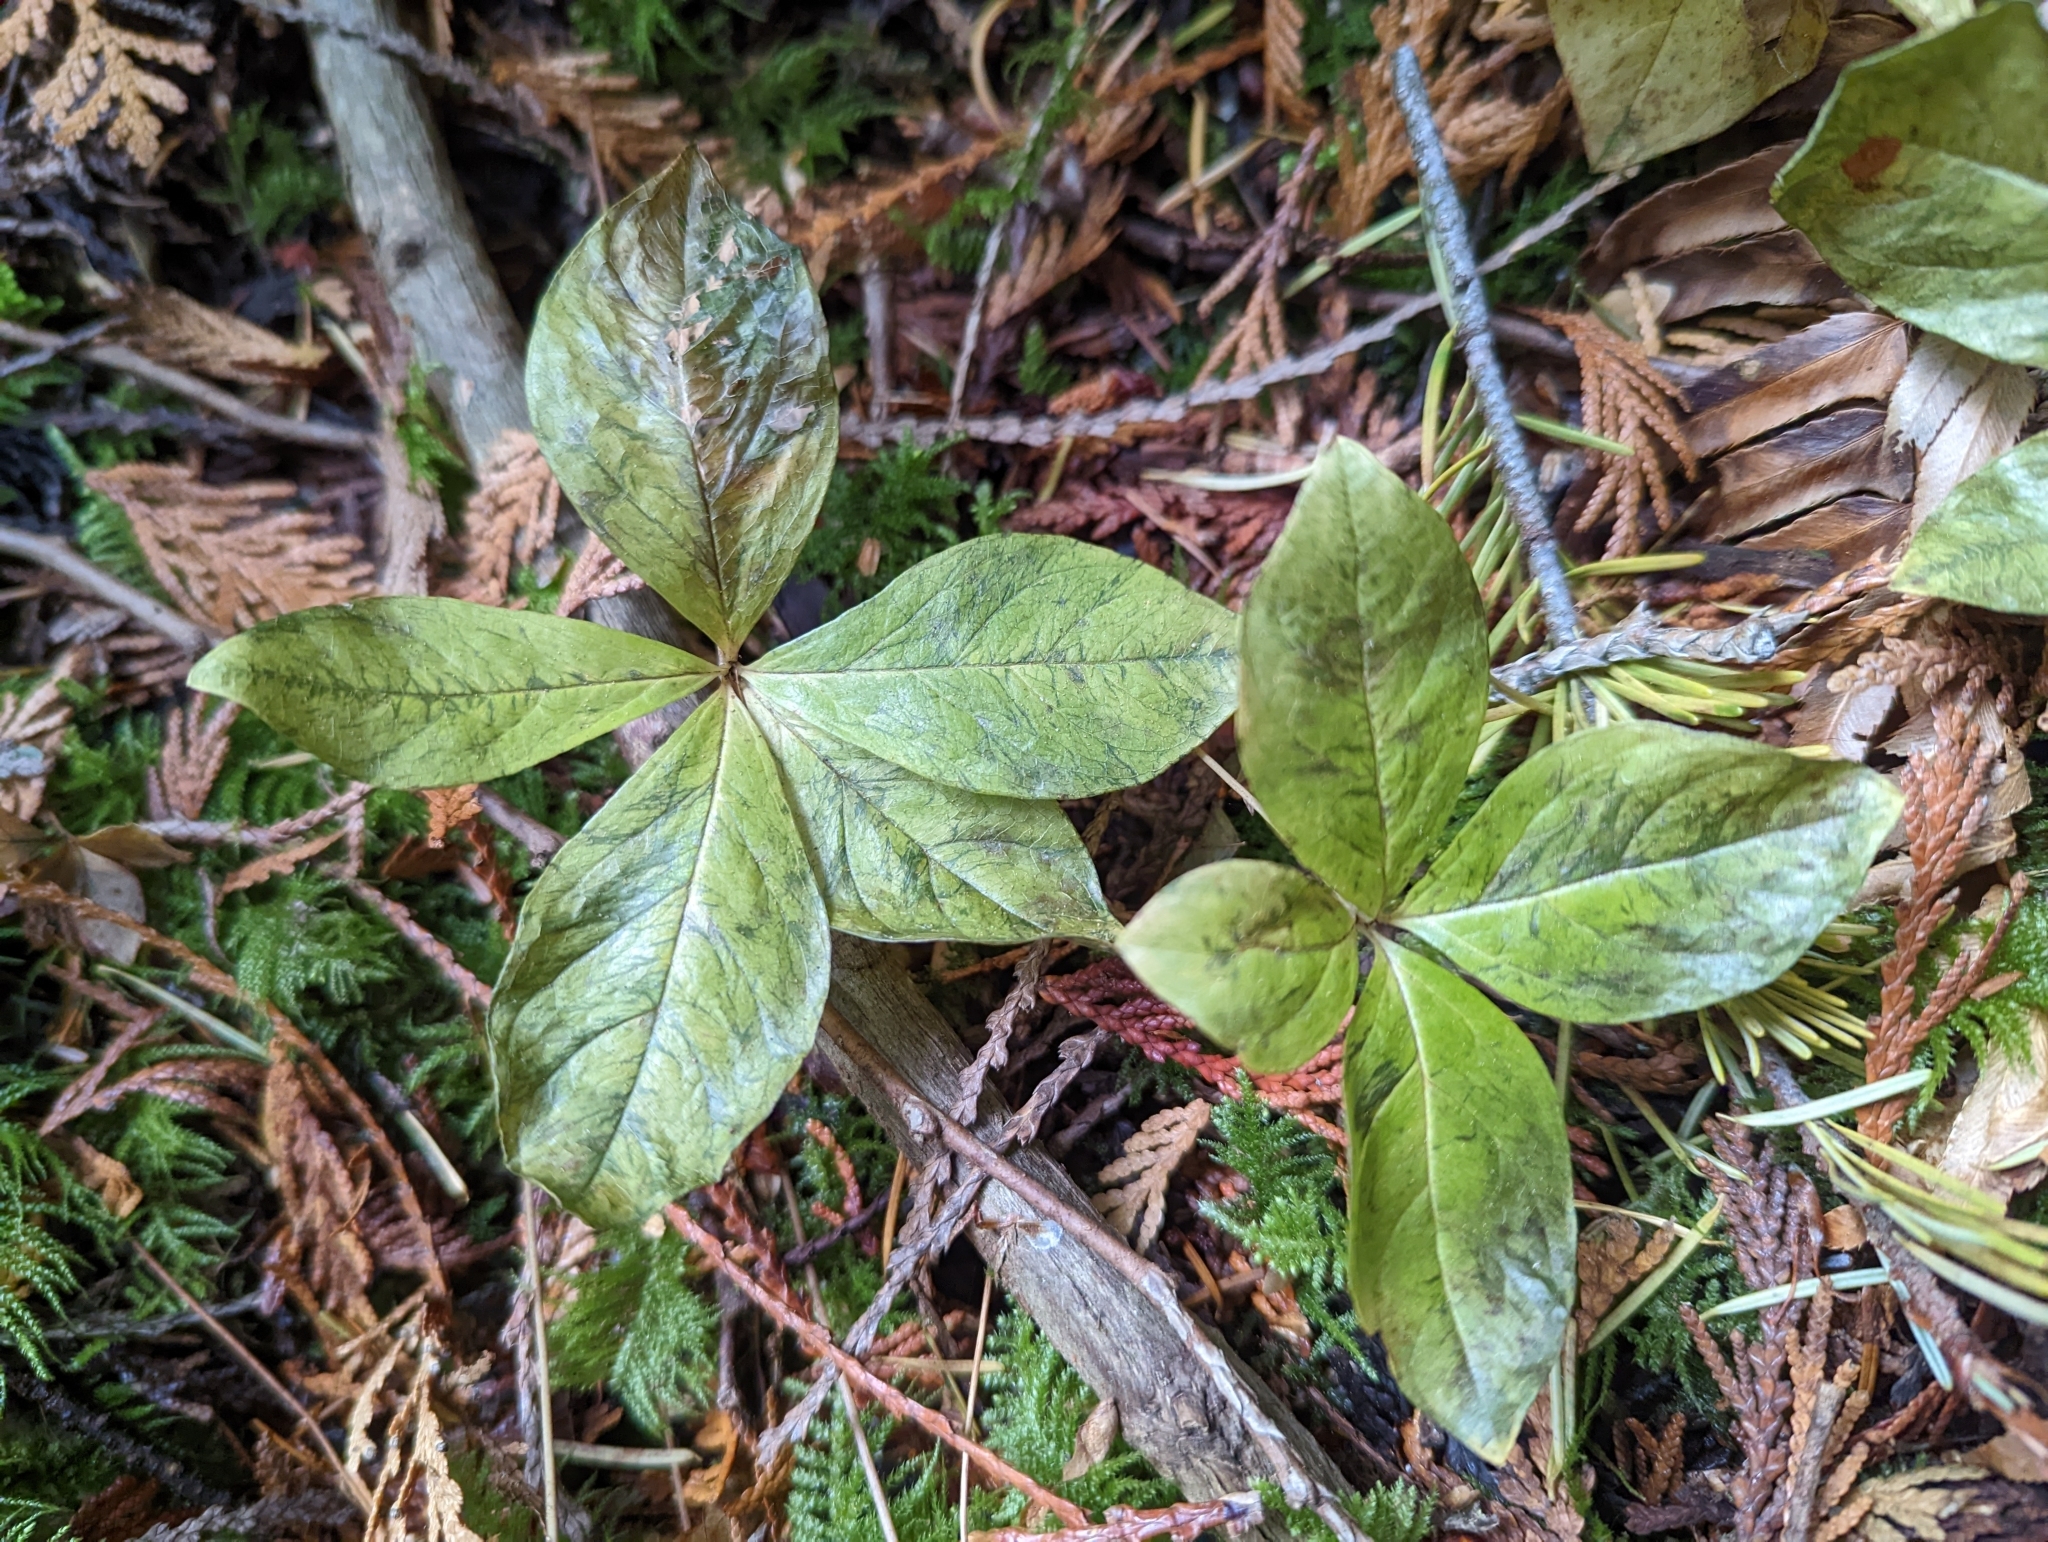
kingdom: Plantae
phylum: Tracheophyta
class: Magnoliopsida
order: Ericales
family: Primulaceae
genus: Lysimachia
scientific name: Lysimachia latifolia
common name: Pacific starflower
